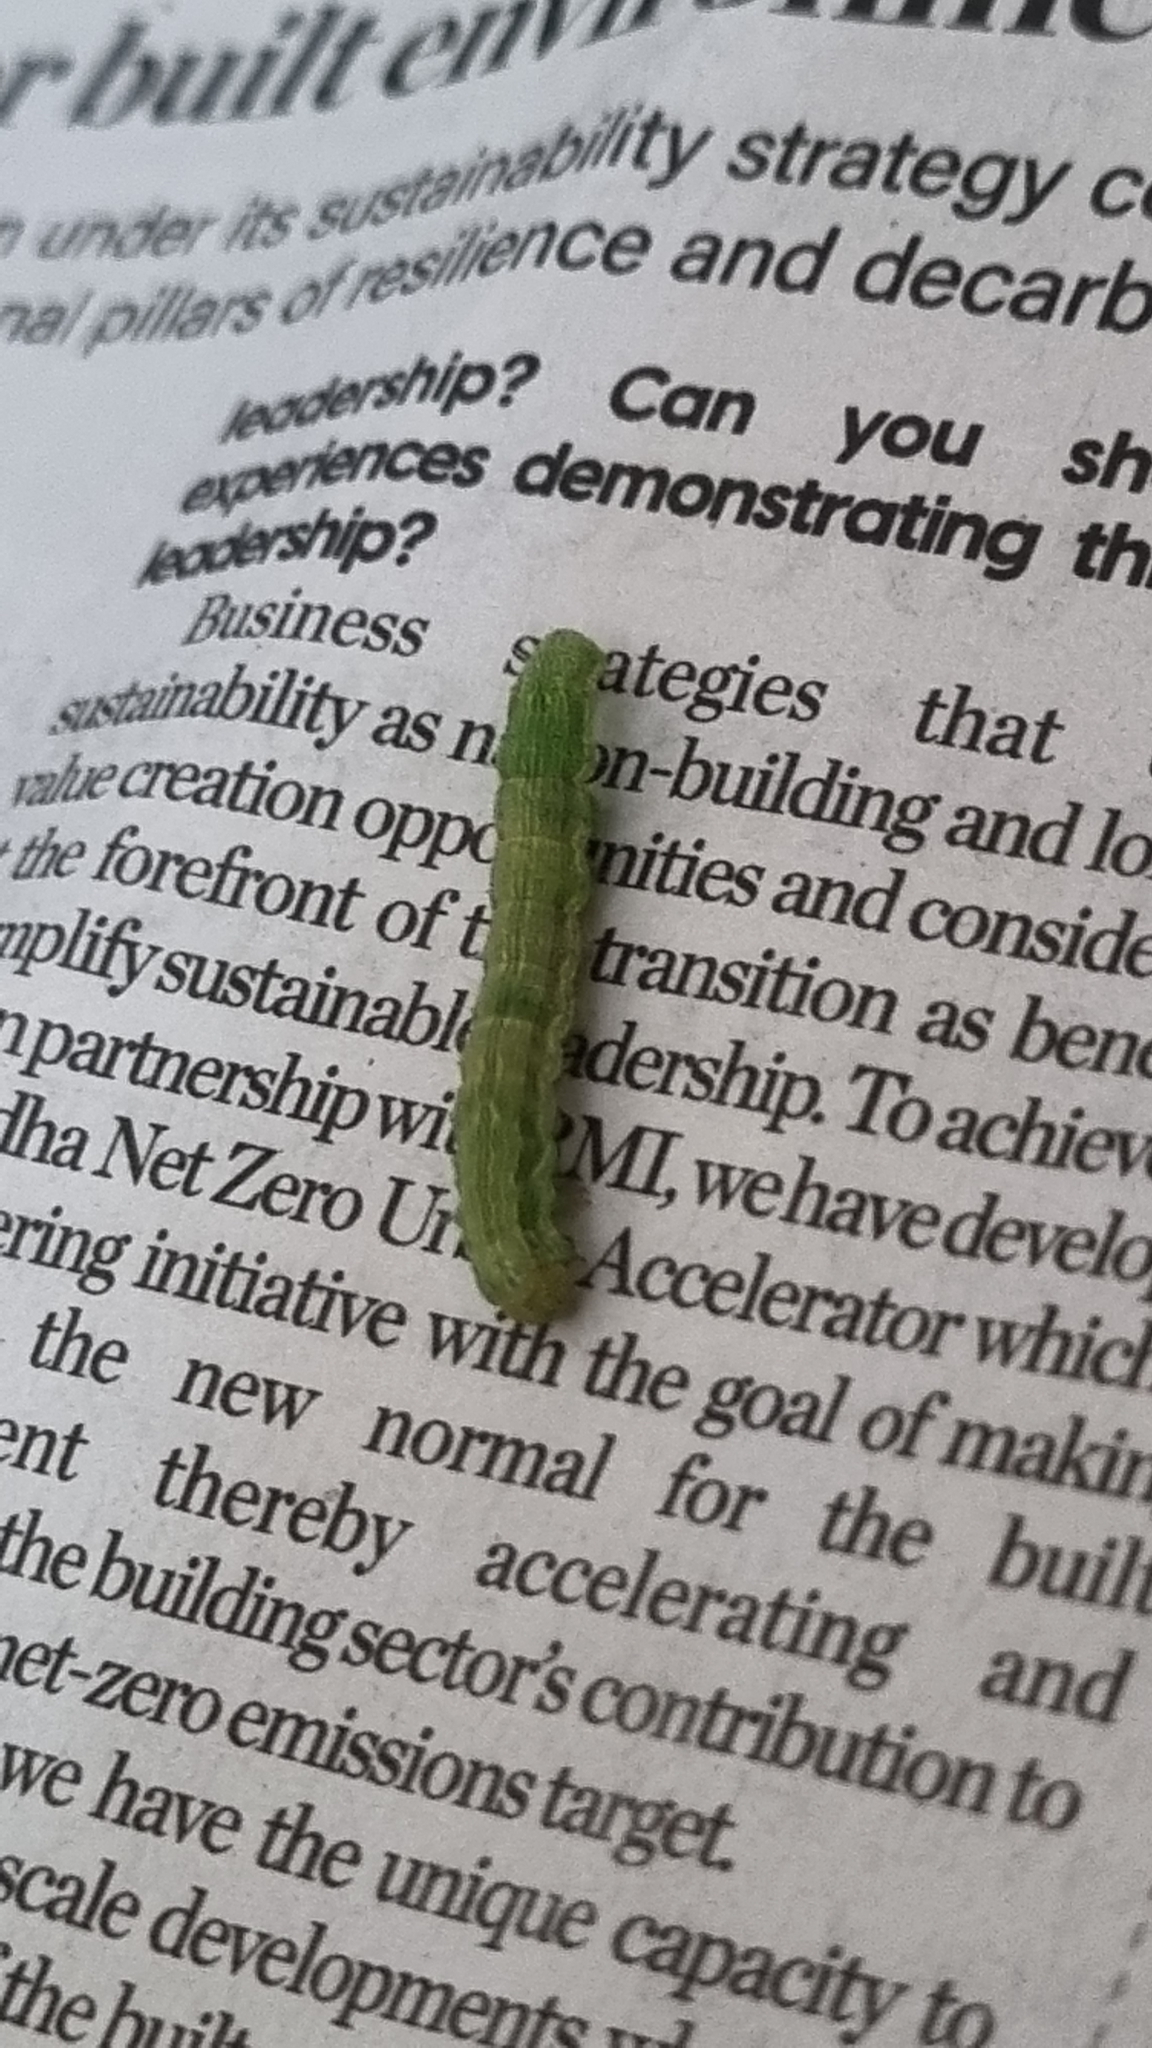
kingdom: Animalia
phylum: Arthropoda
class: Insecta
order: Lepidoptera
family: Noctuidae
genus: Helicoverpa
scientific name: Helicoverpa armigera
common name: Cotton bollworm
